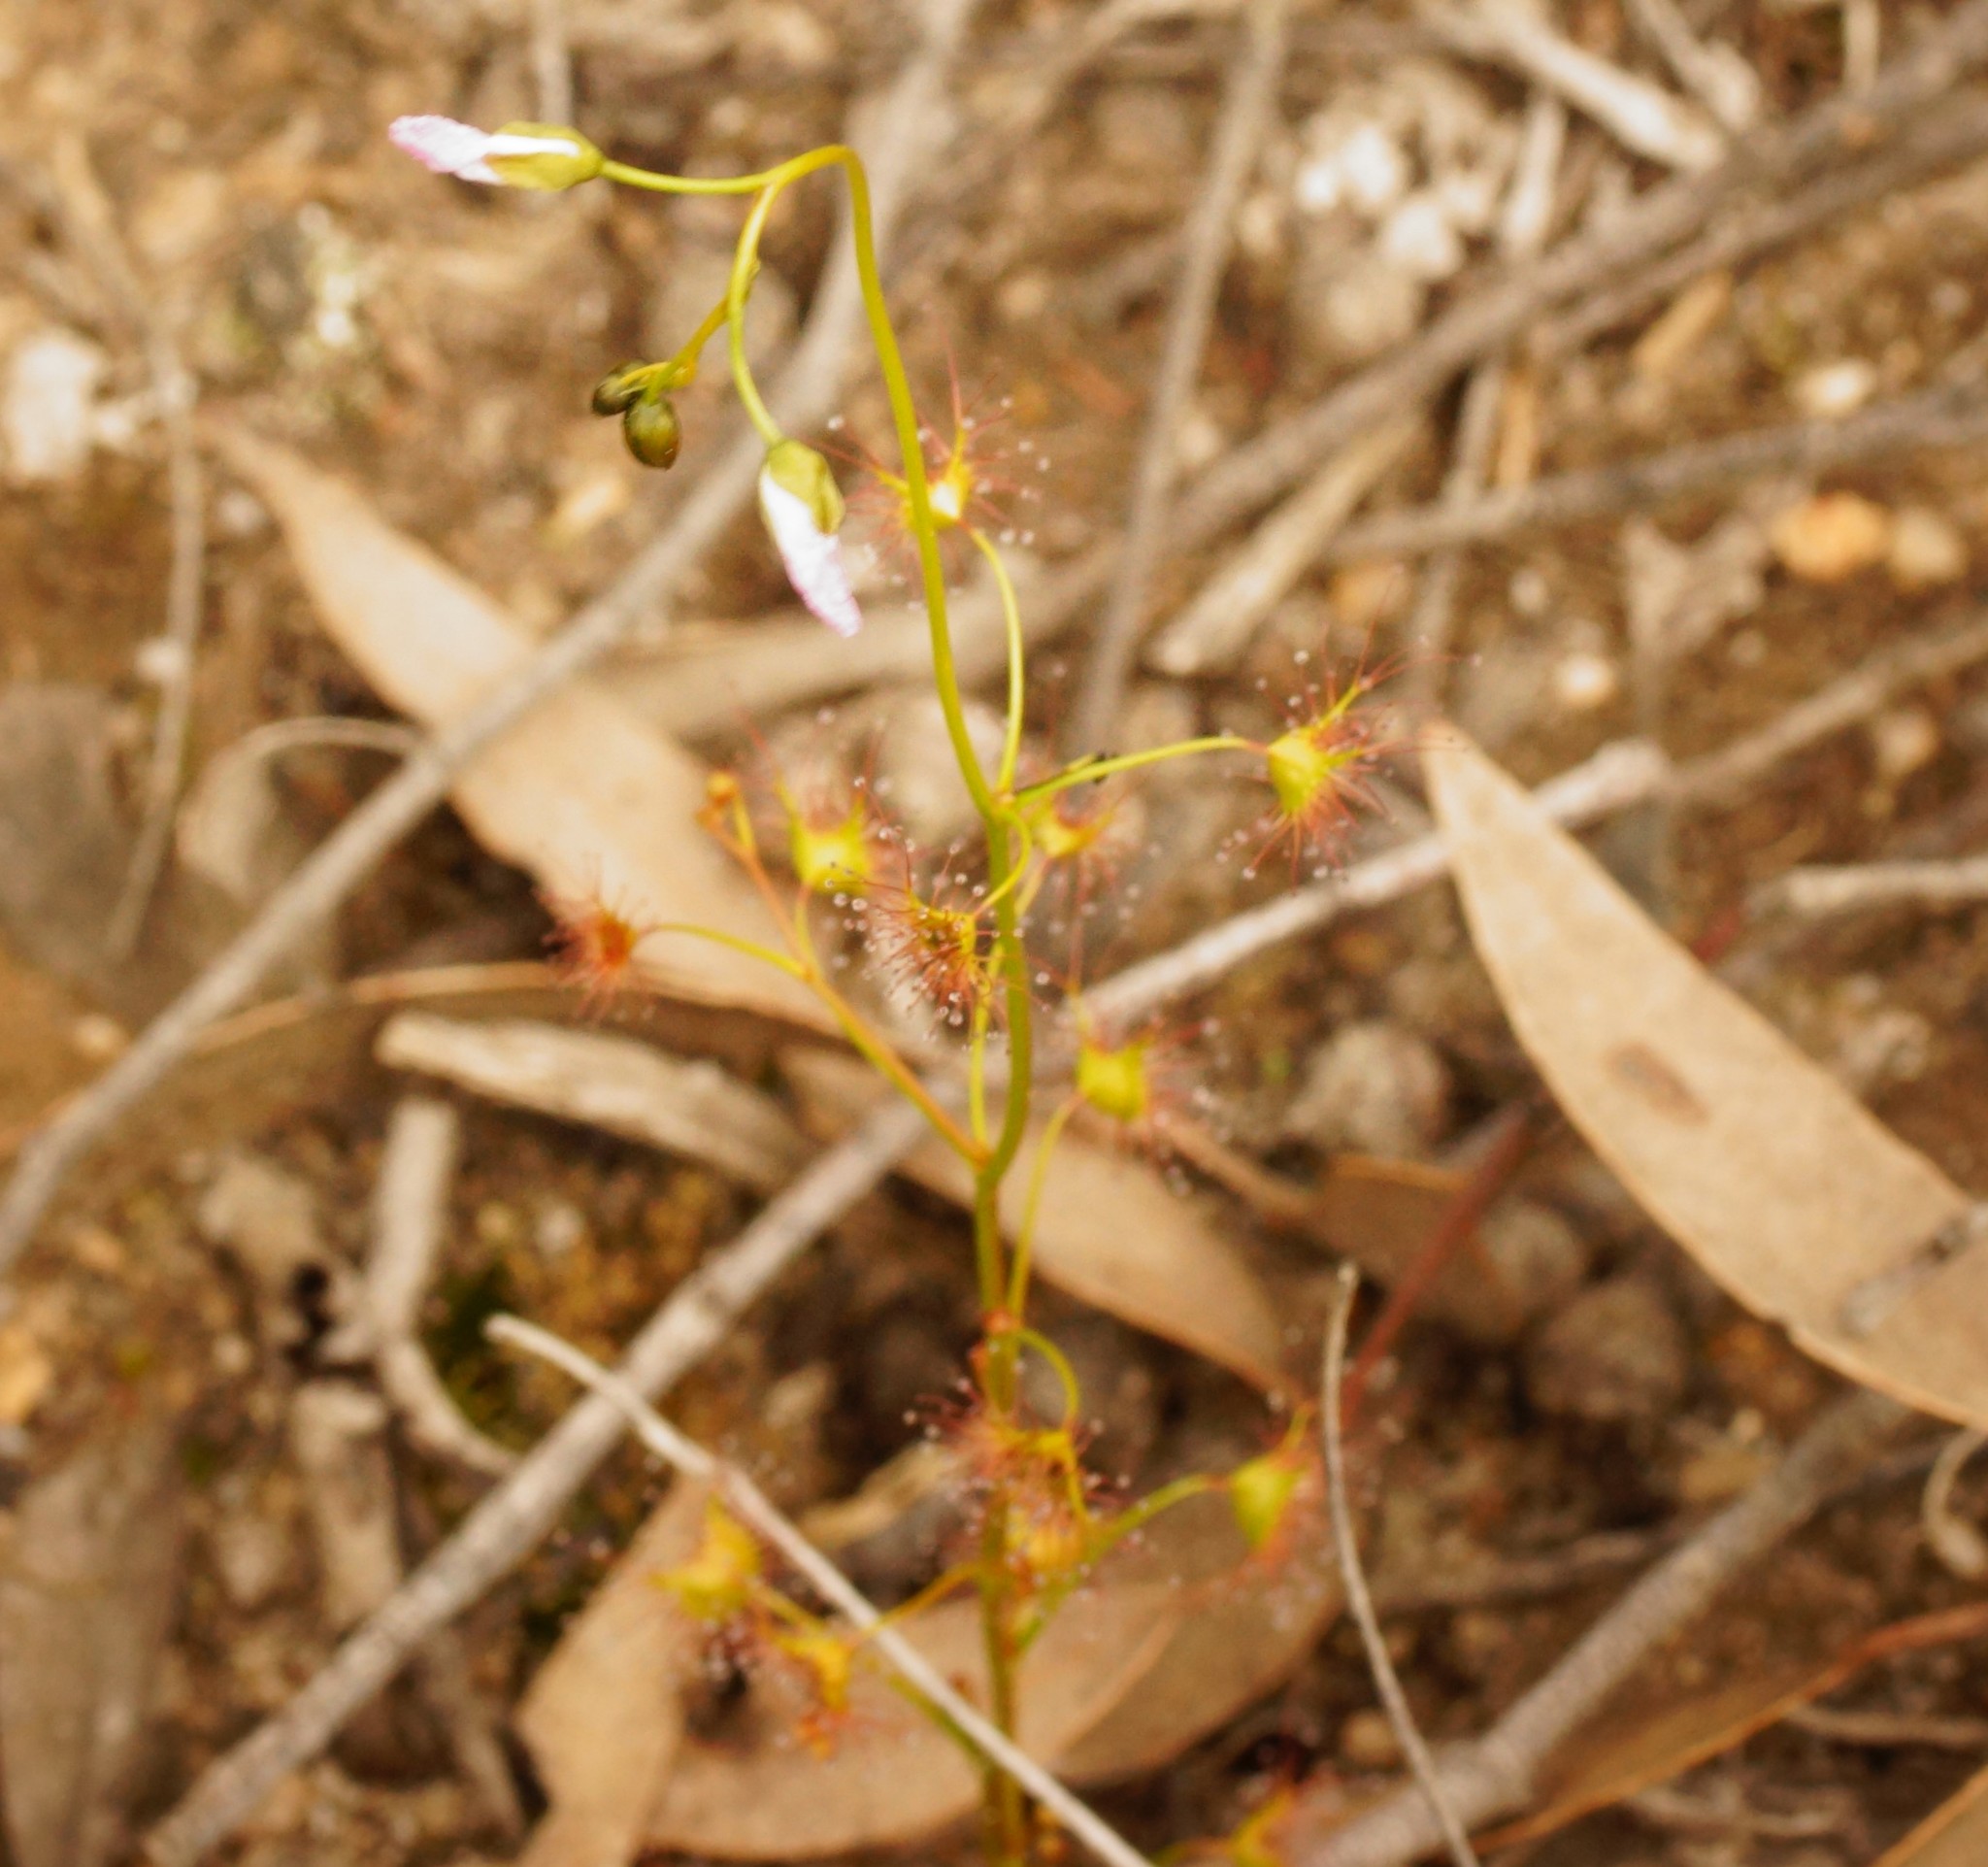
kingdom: Plantae
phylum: Tracheophyta
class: Magnoliopsida
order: Caryophyllales
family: Droseraceae
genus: Drosera
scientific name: Drosera peltata
